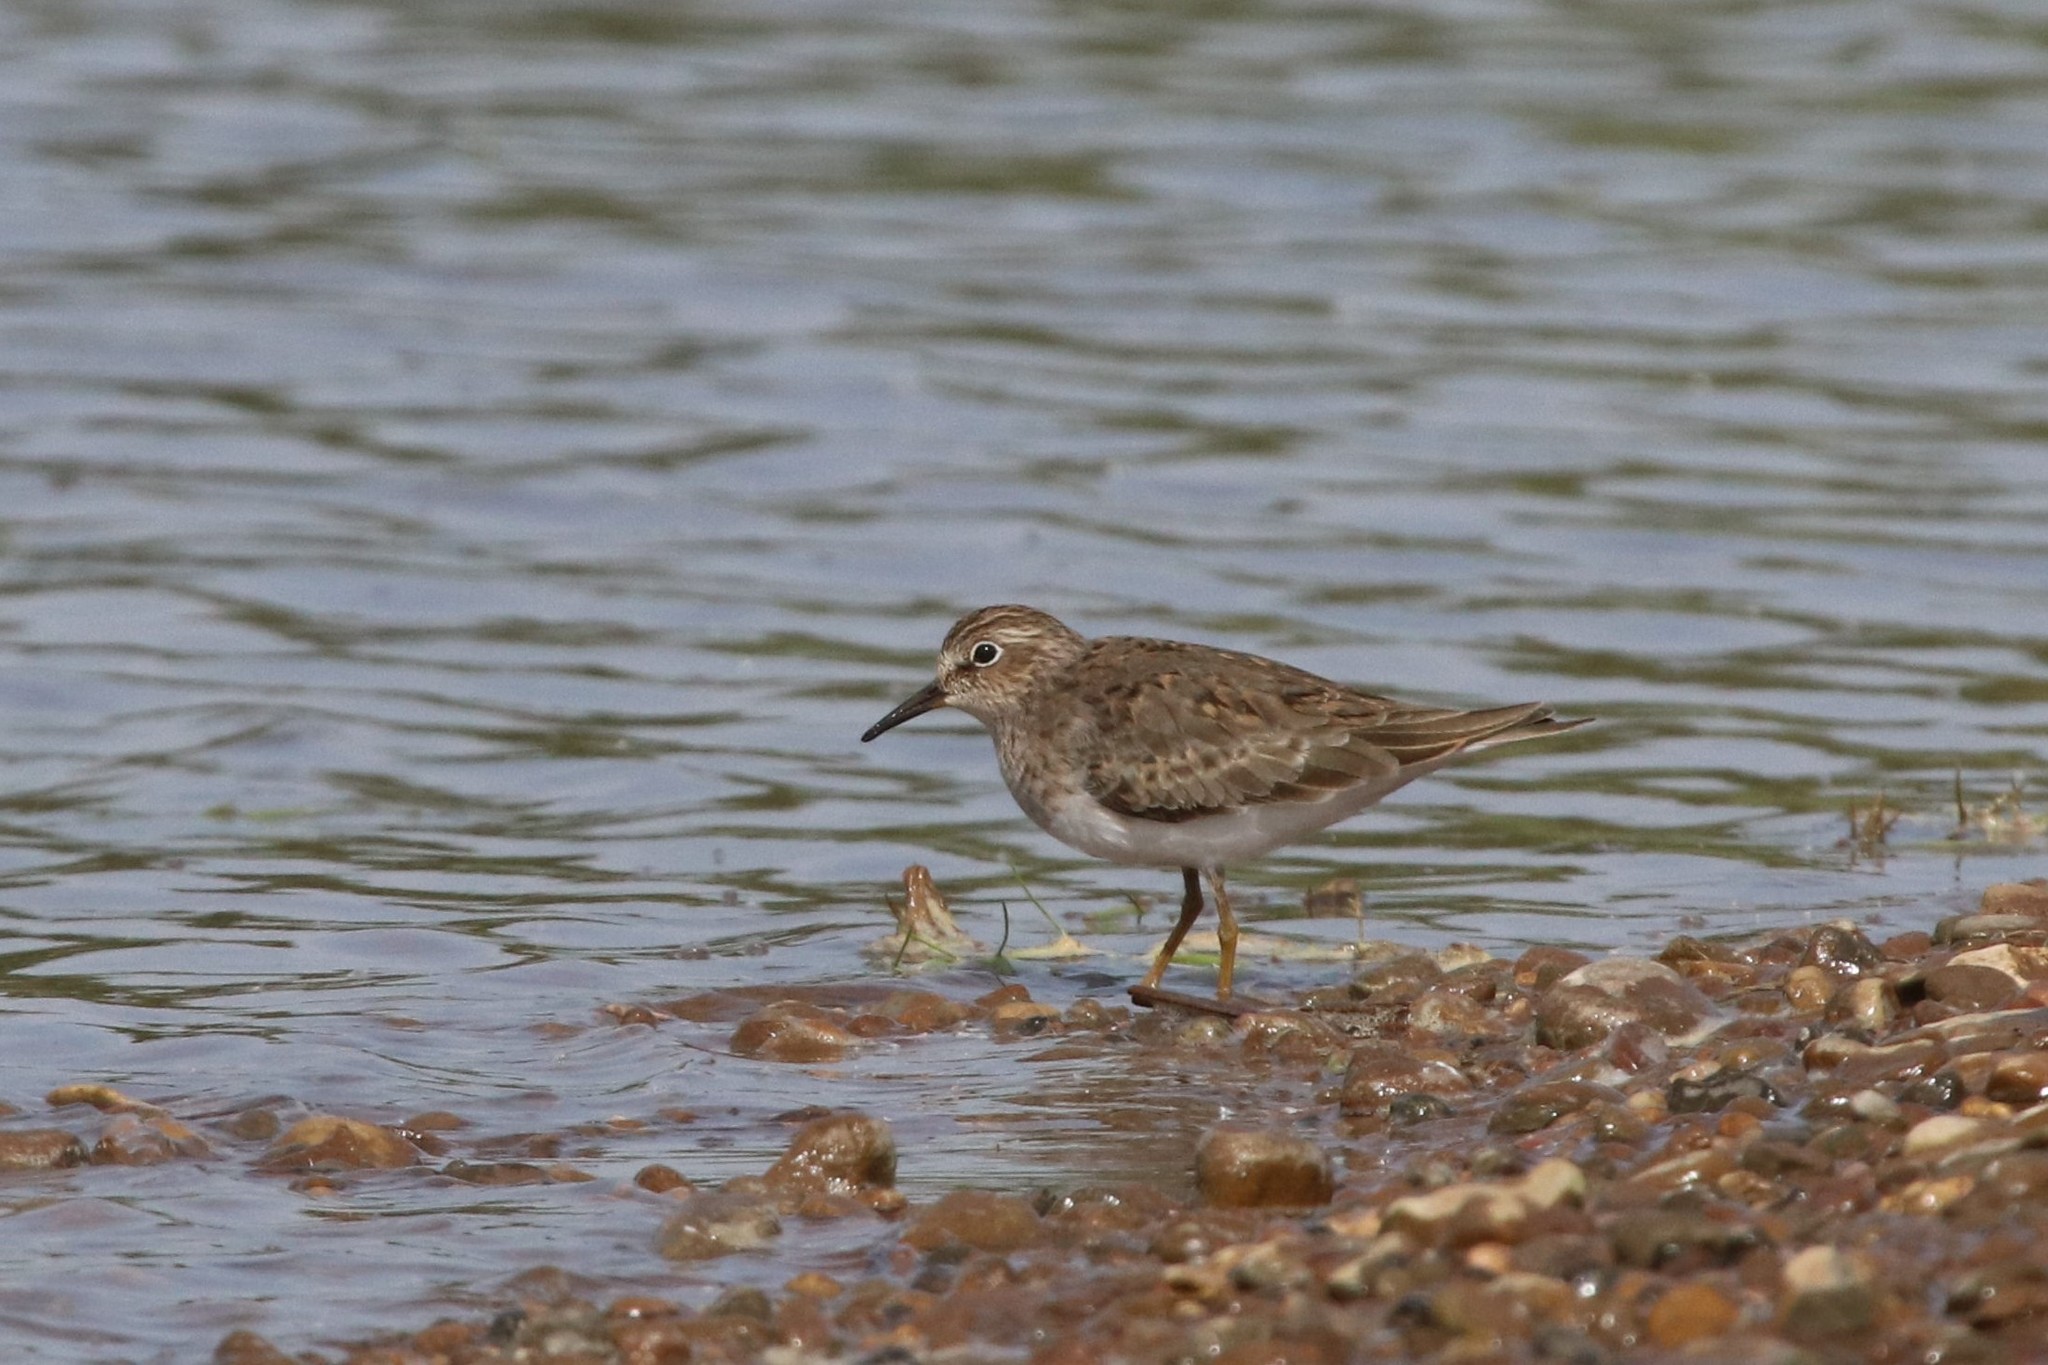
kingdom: Animalia
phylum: Chordata
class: Aves
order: Charadriiformes
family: Scolopacidae
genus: Calidris
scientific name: Calidris temminckii
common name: Temminck's stint
